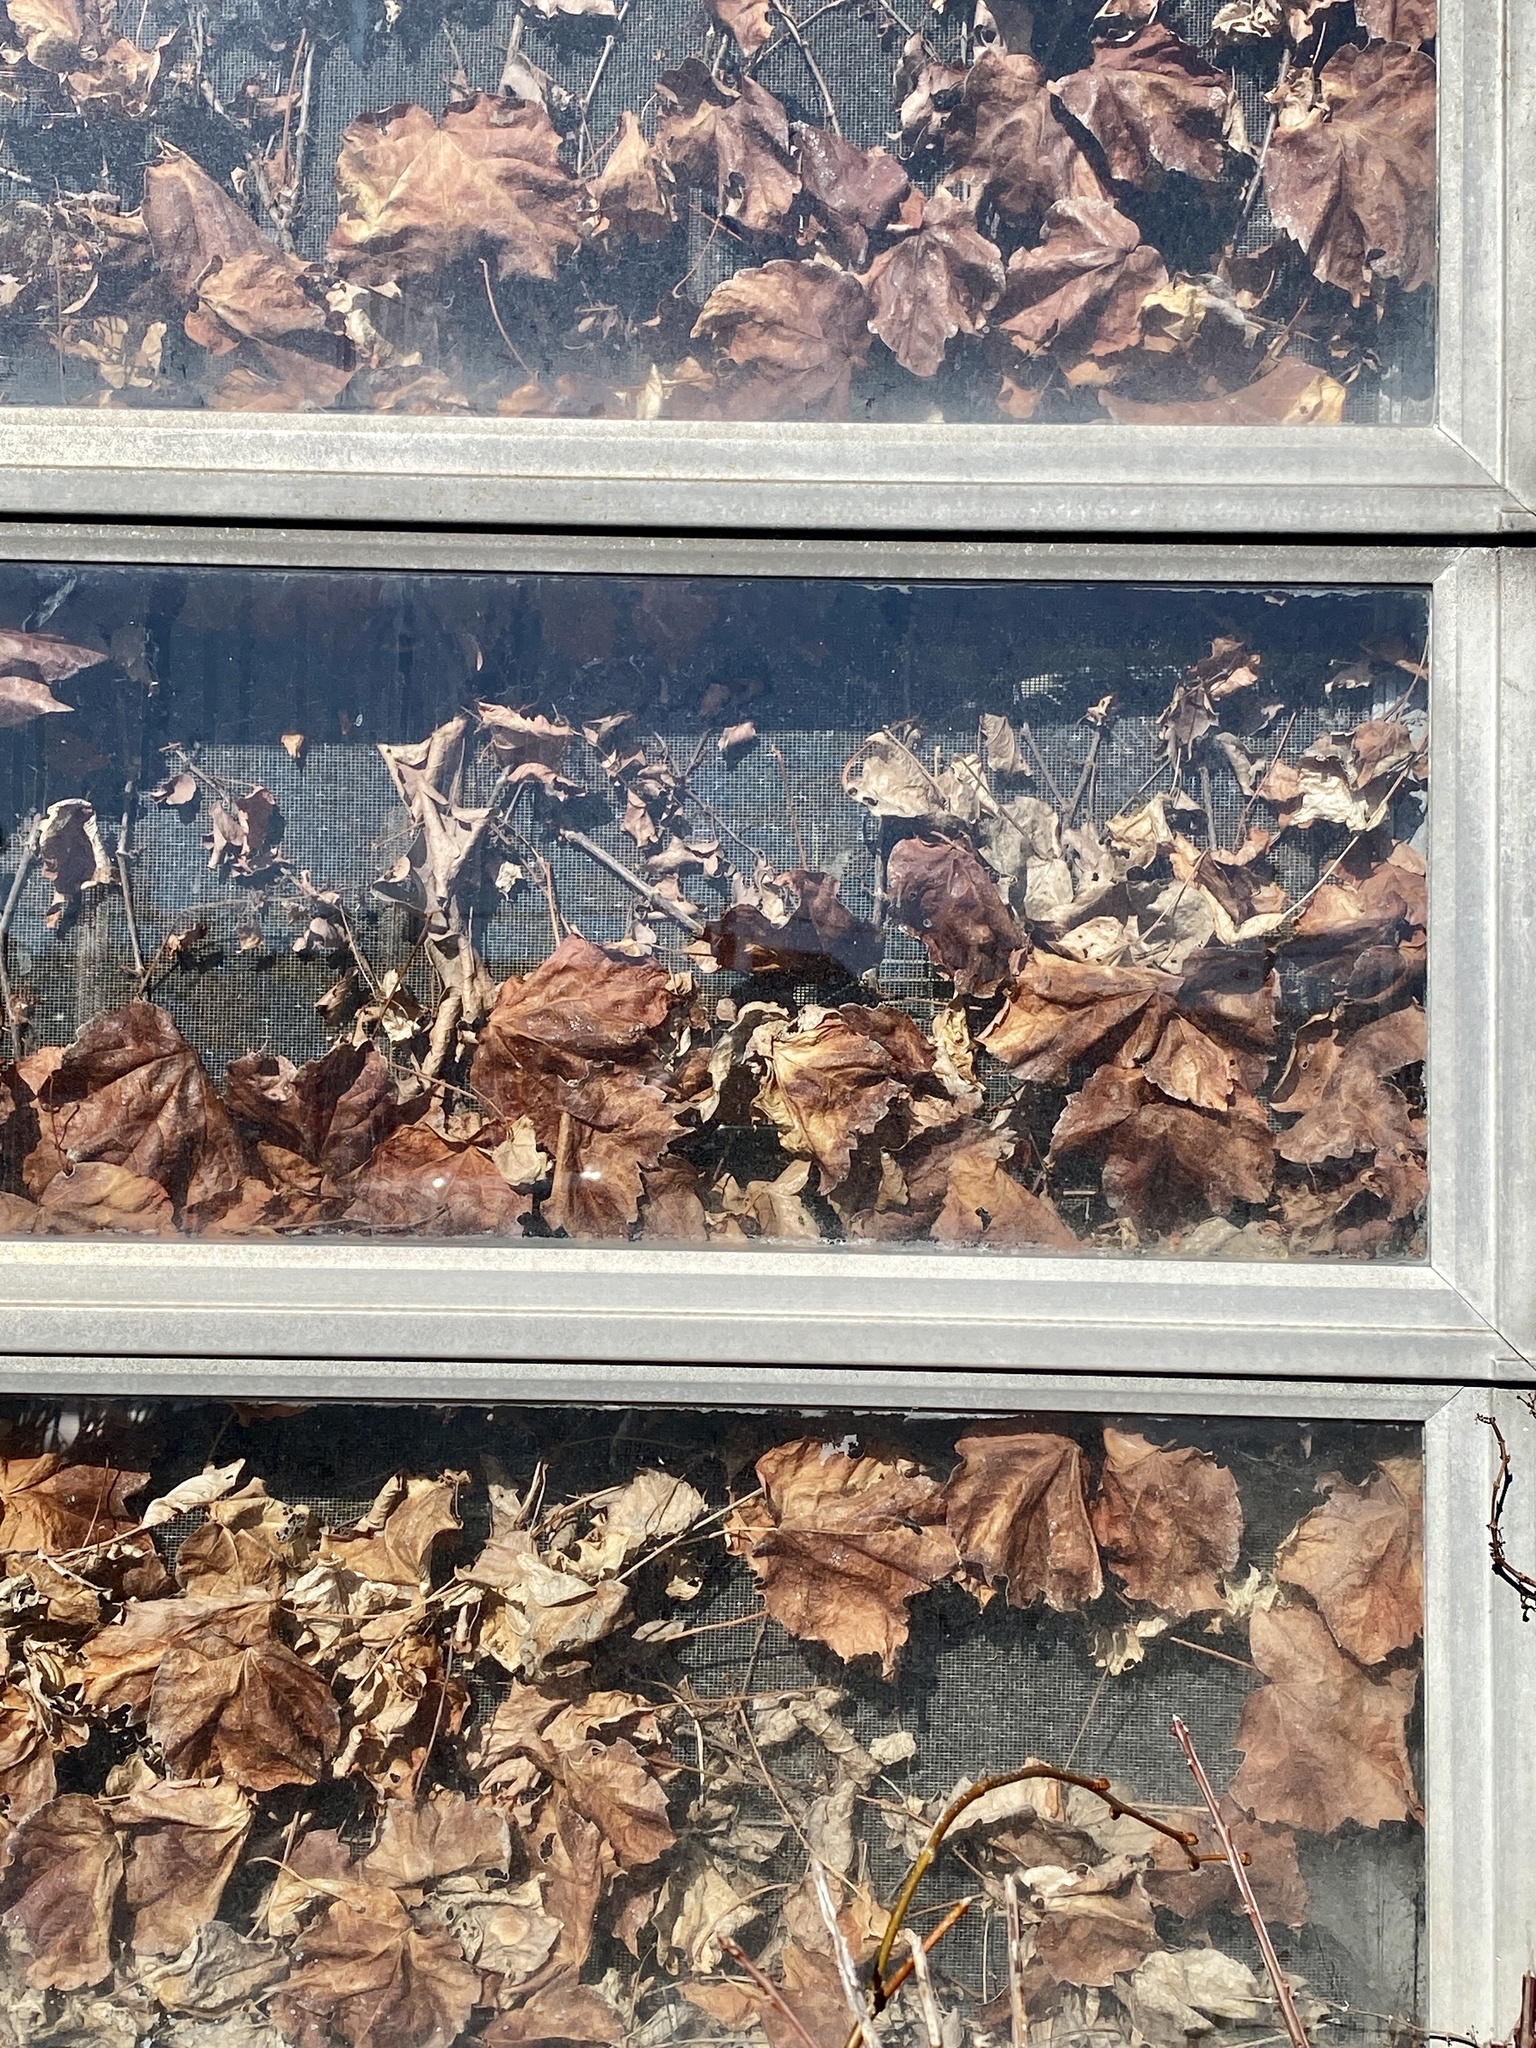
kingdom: Plantae
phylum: Tracheophyta
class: Magnoliopsida
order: Vitales
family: Vitaceae
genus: Parthenocissus
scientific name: Parthenocissus tricuspidata
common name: Boston ivy
